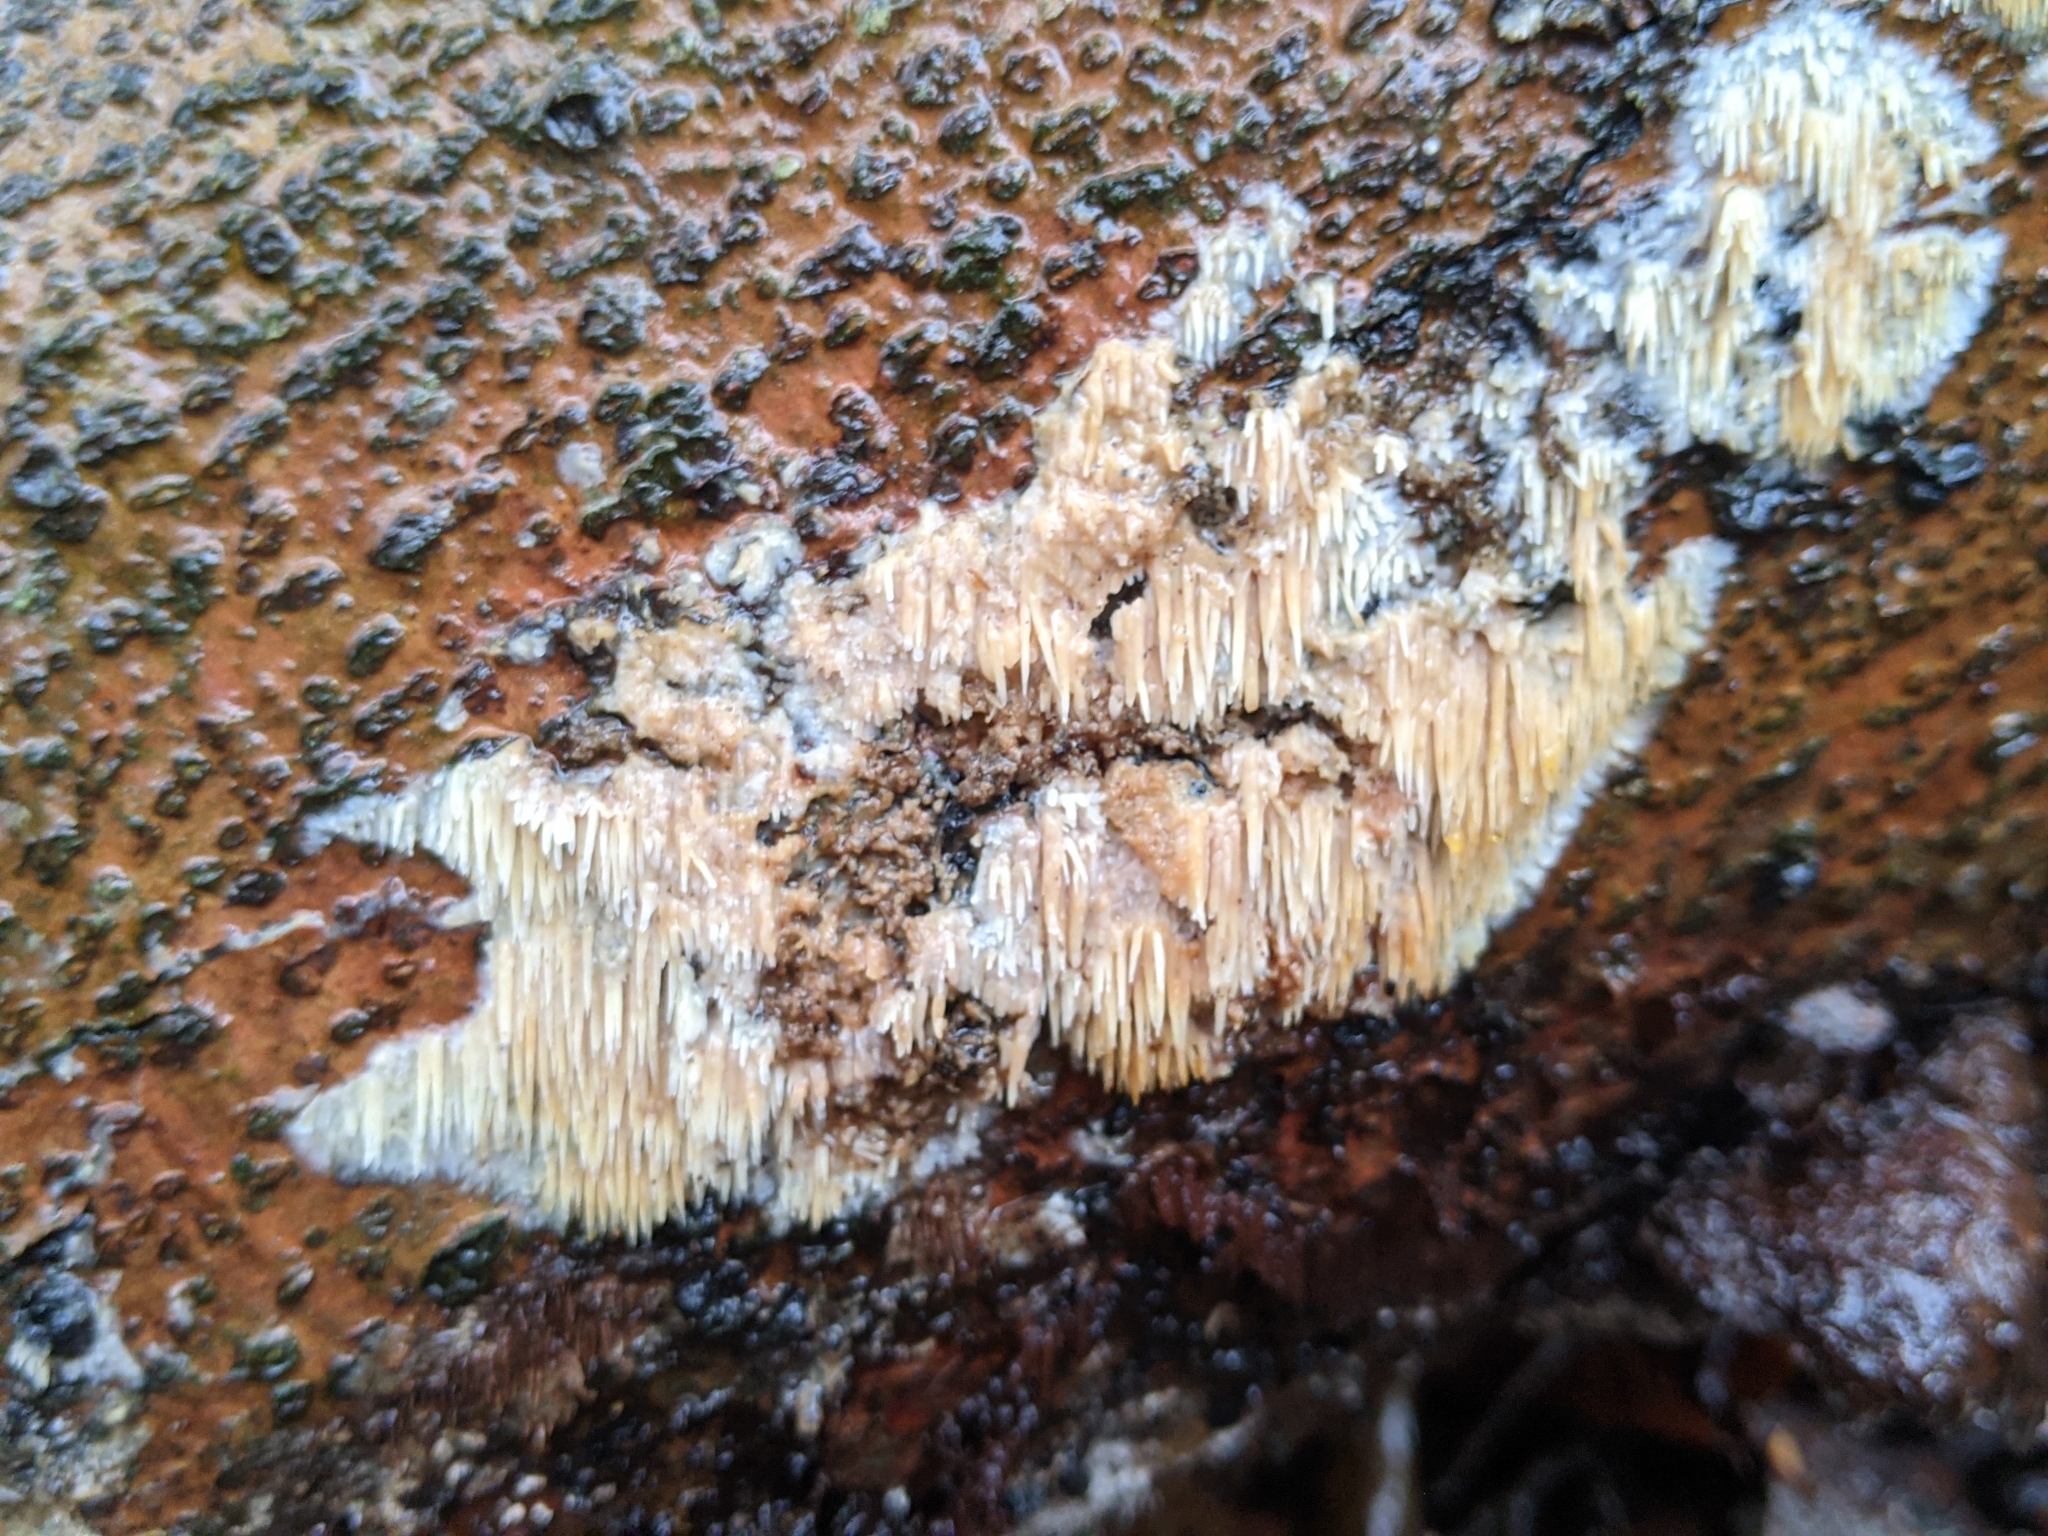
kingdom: Fungi
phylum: Basidiomycota
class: Agaricomycetes
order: Agaricales
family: Radulomycetaceae
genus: Radulomyces
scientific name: Radulomyces copelandii
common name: Asian beauty
